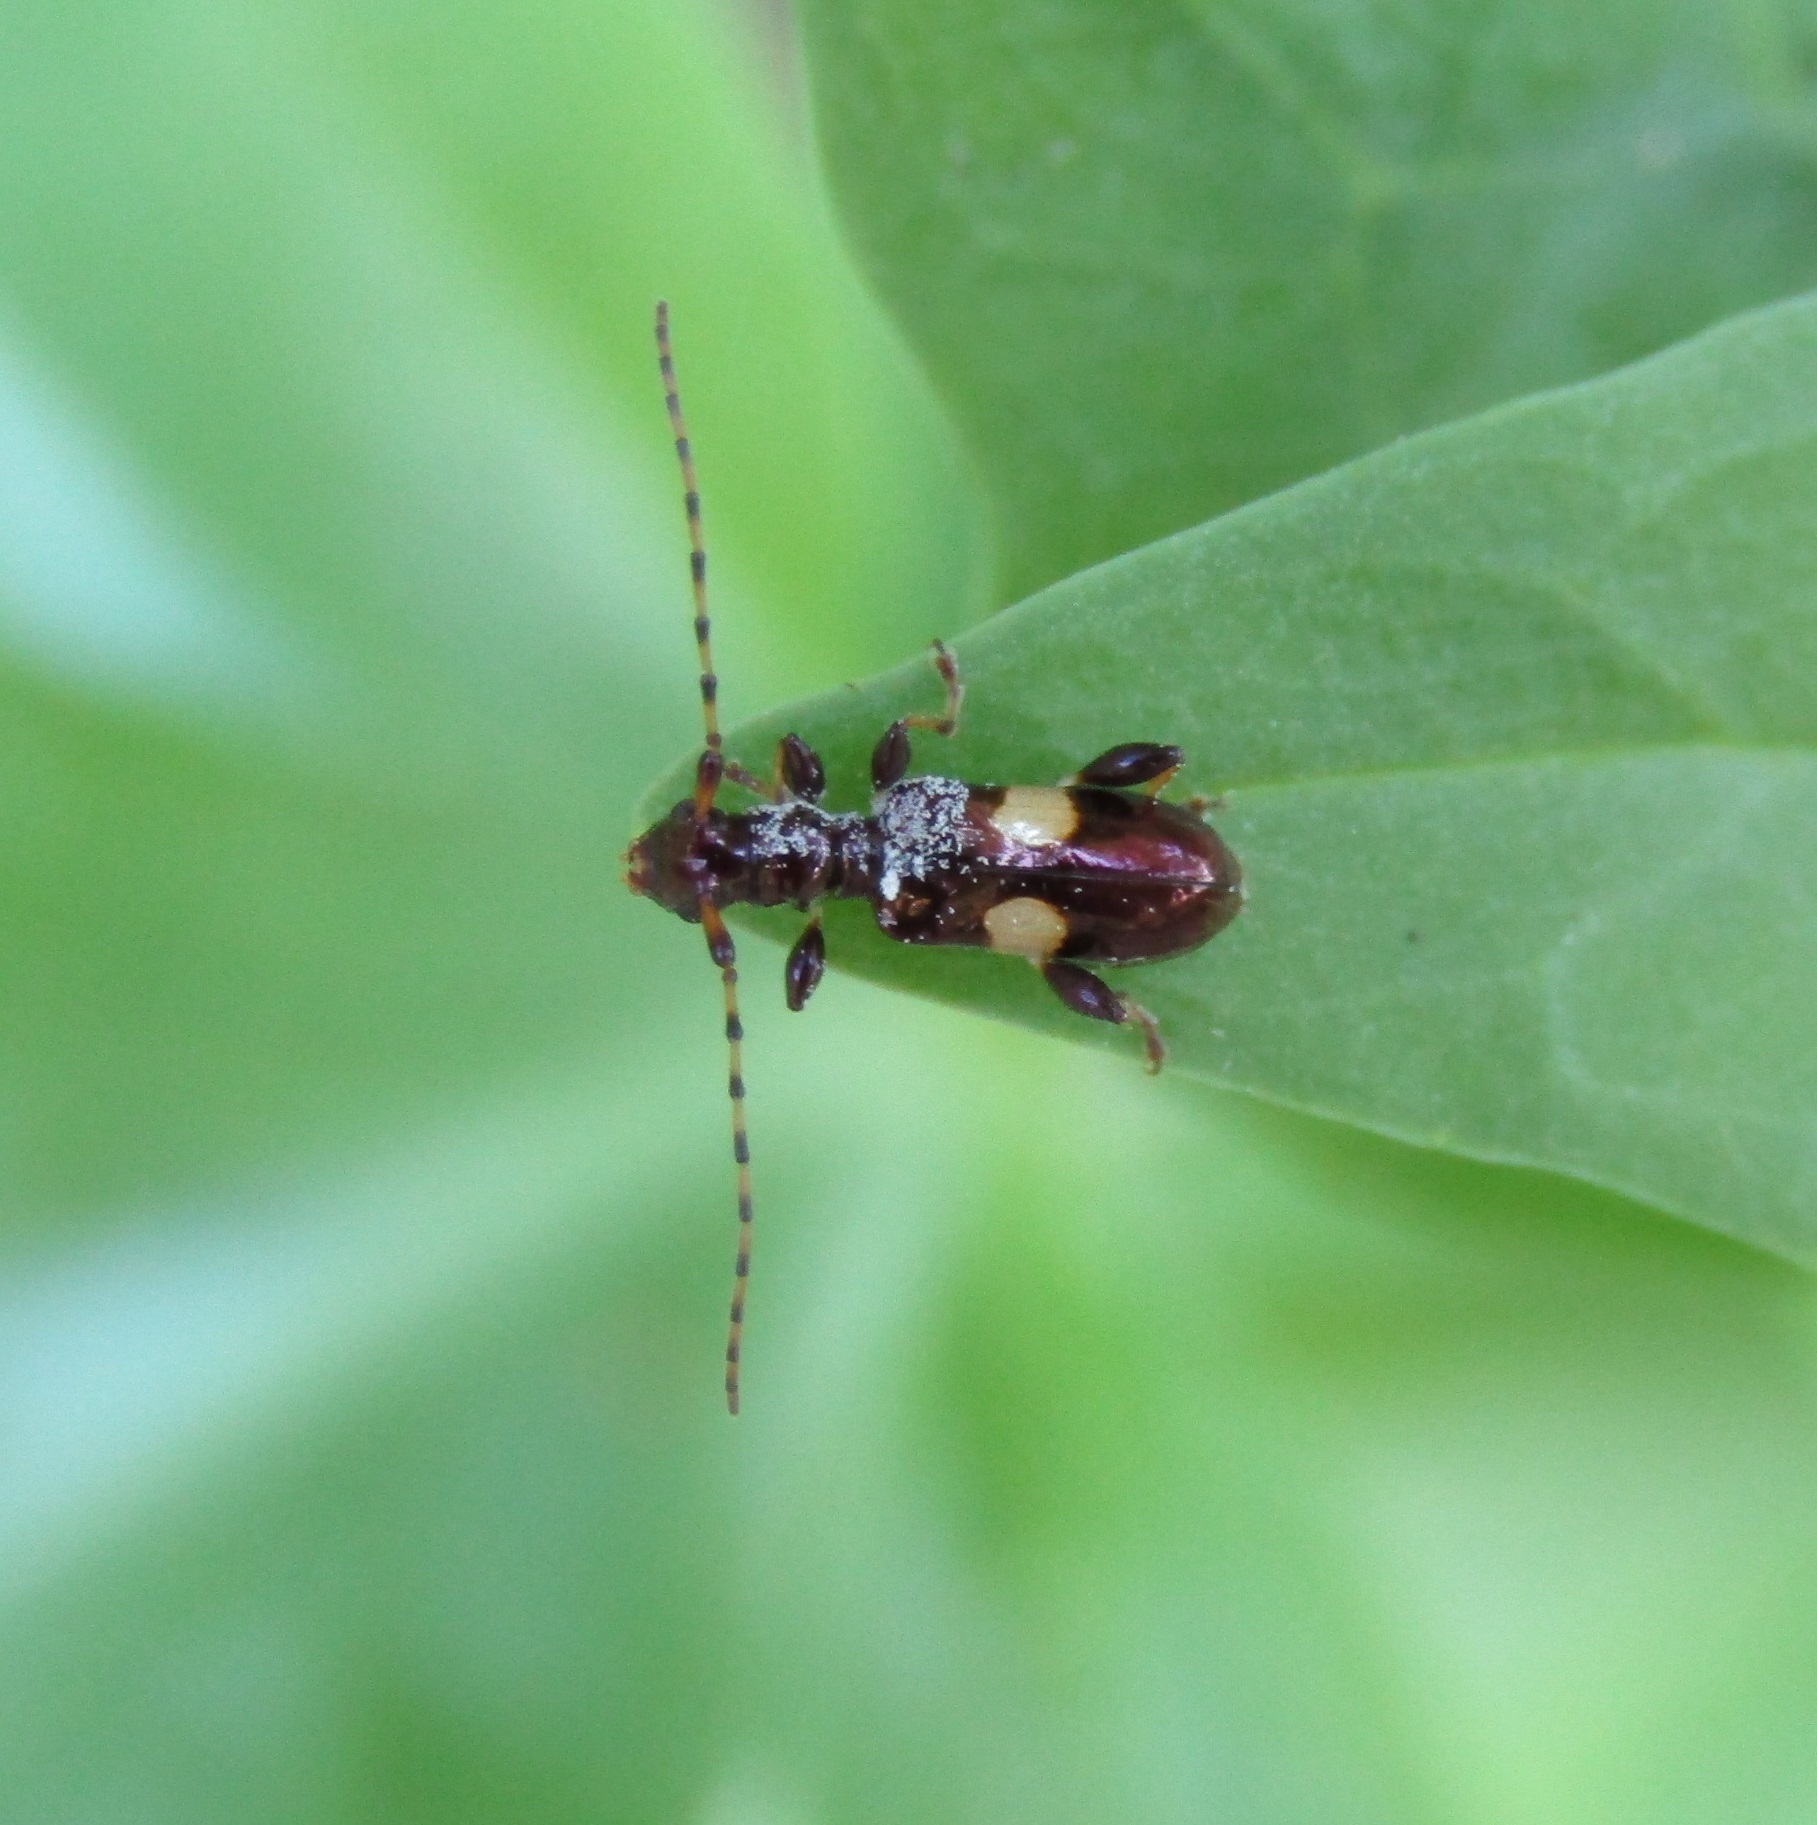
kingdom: Animalia
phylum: Arthropoda
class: Insecta
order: Coleoptera
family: Cerambycidae
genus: Zorion
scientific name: Zorion guttigerum
